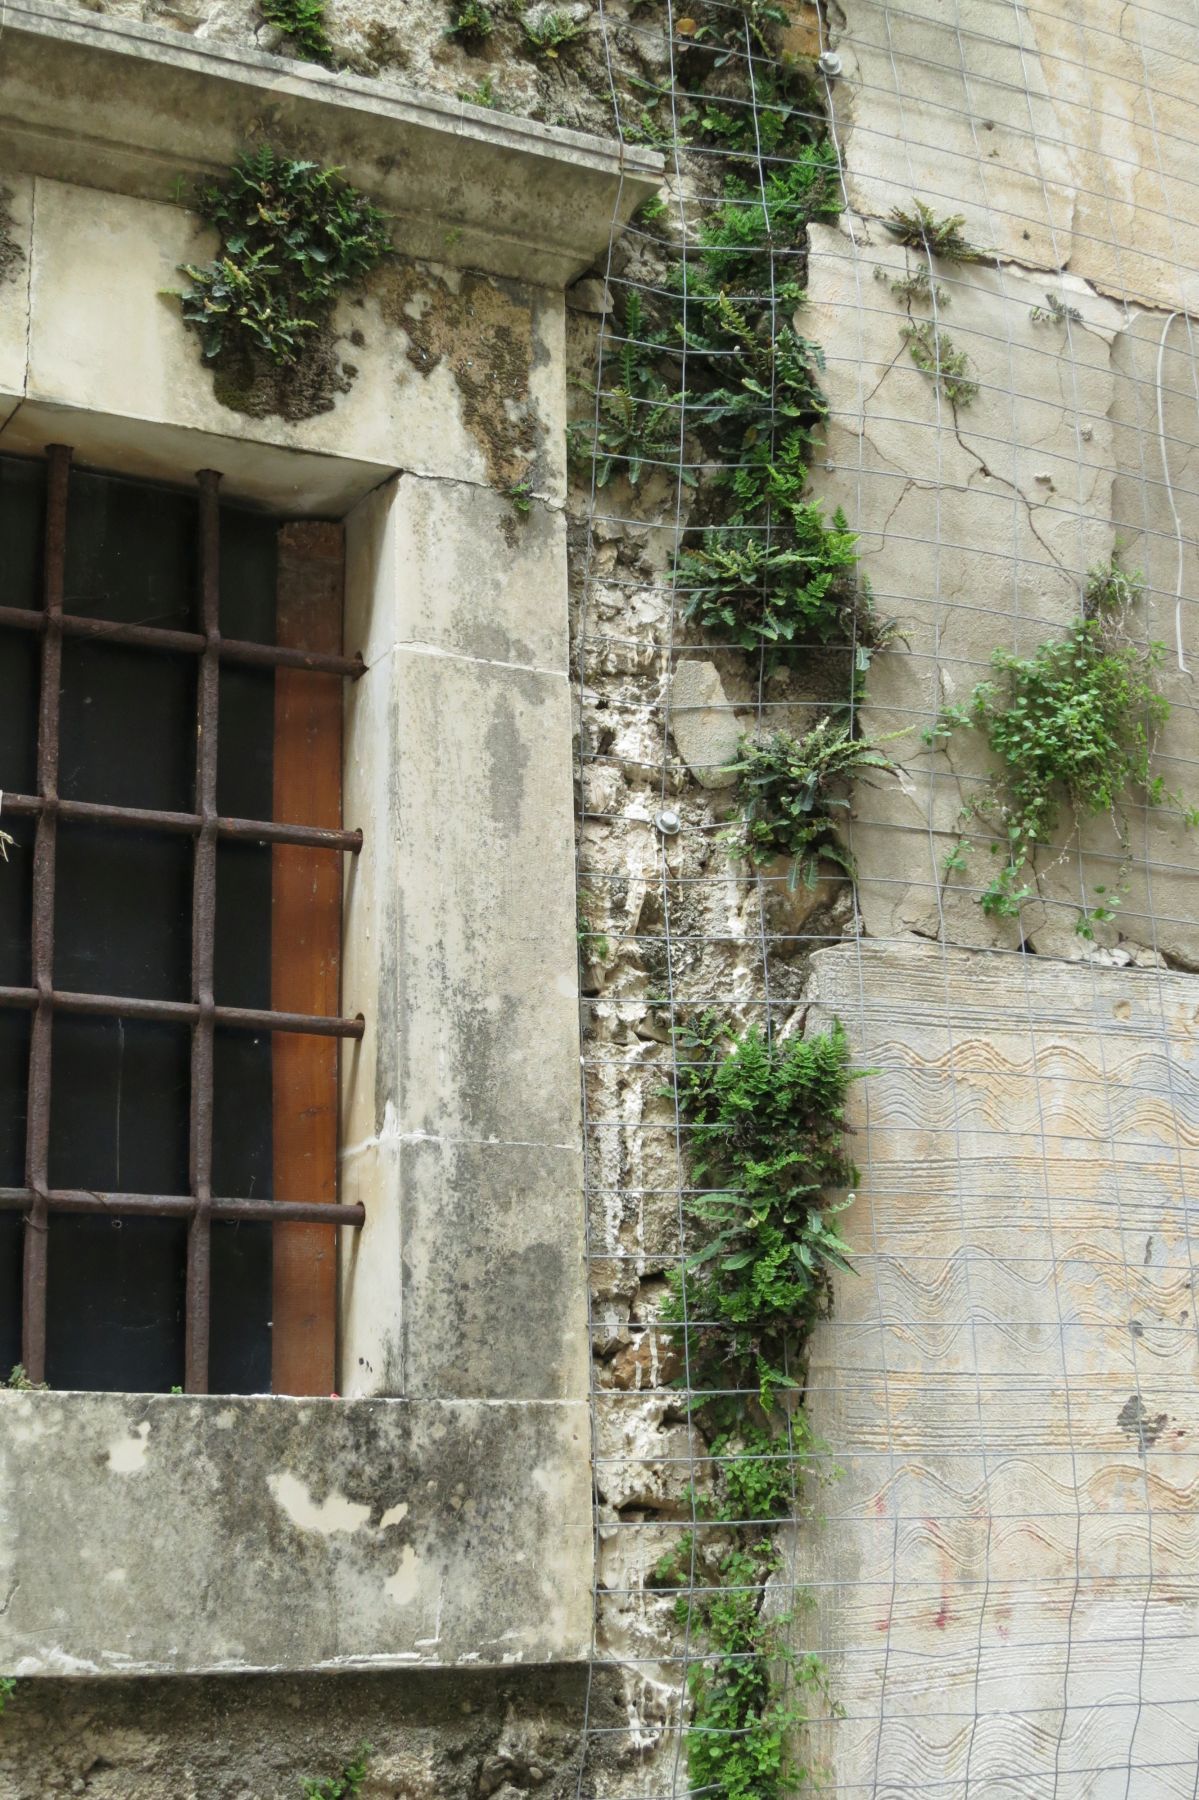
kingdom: Plantae
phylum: Tracheophyta
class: Polypodiopsida
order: Polypodiales
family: Aspleniaceae
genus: Asplenium
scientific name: Asplenium ceterach
